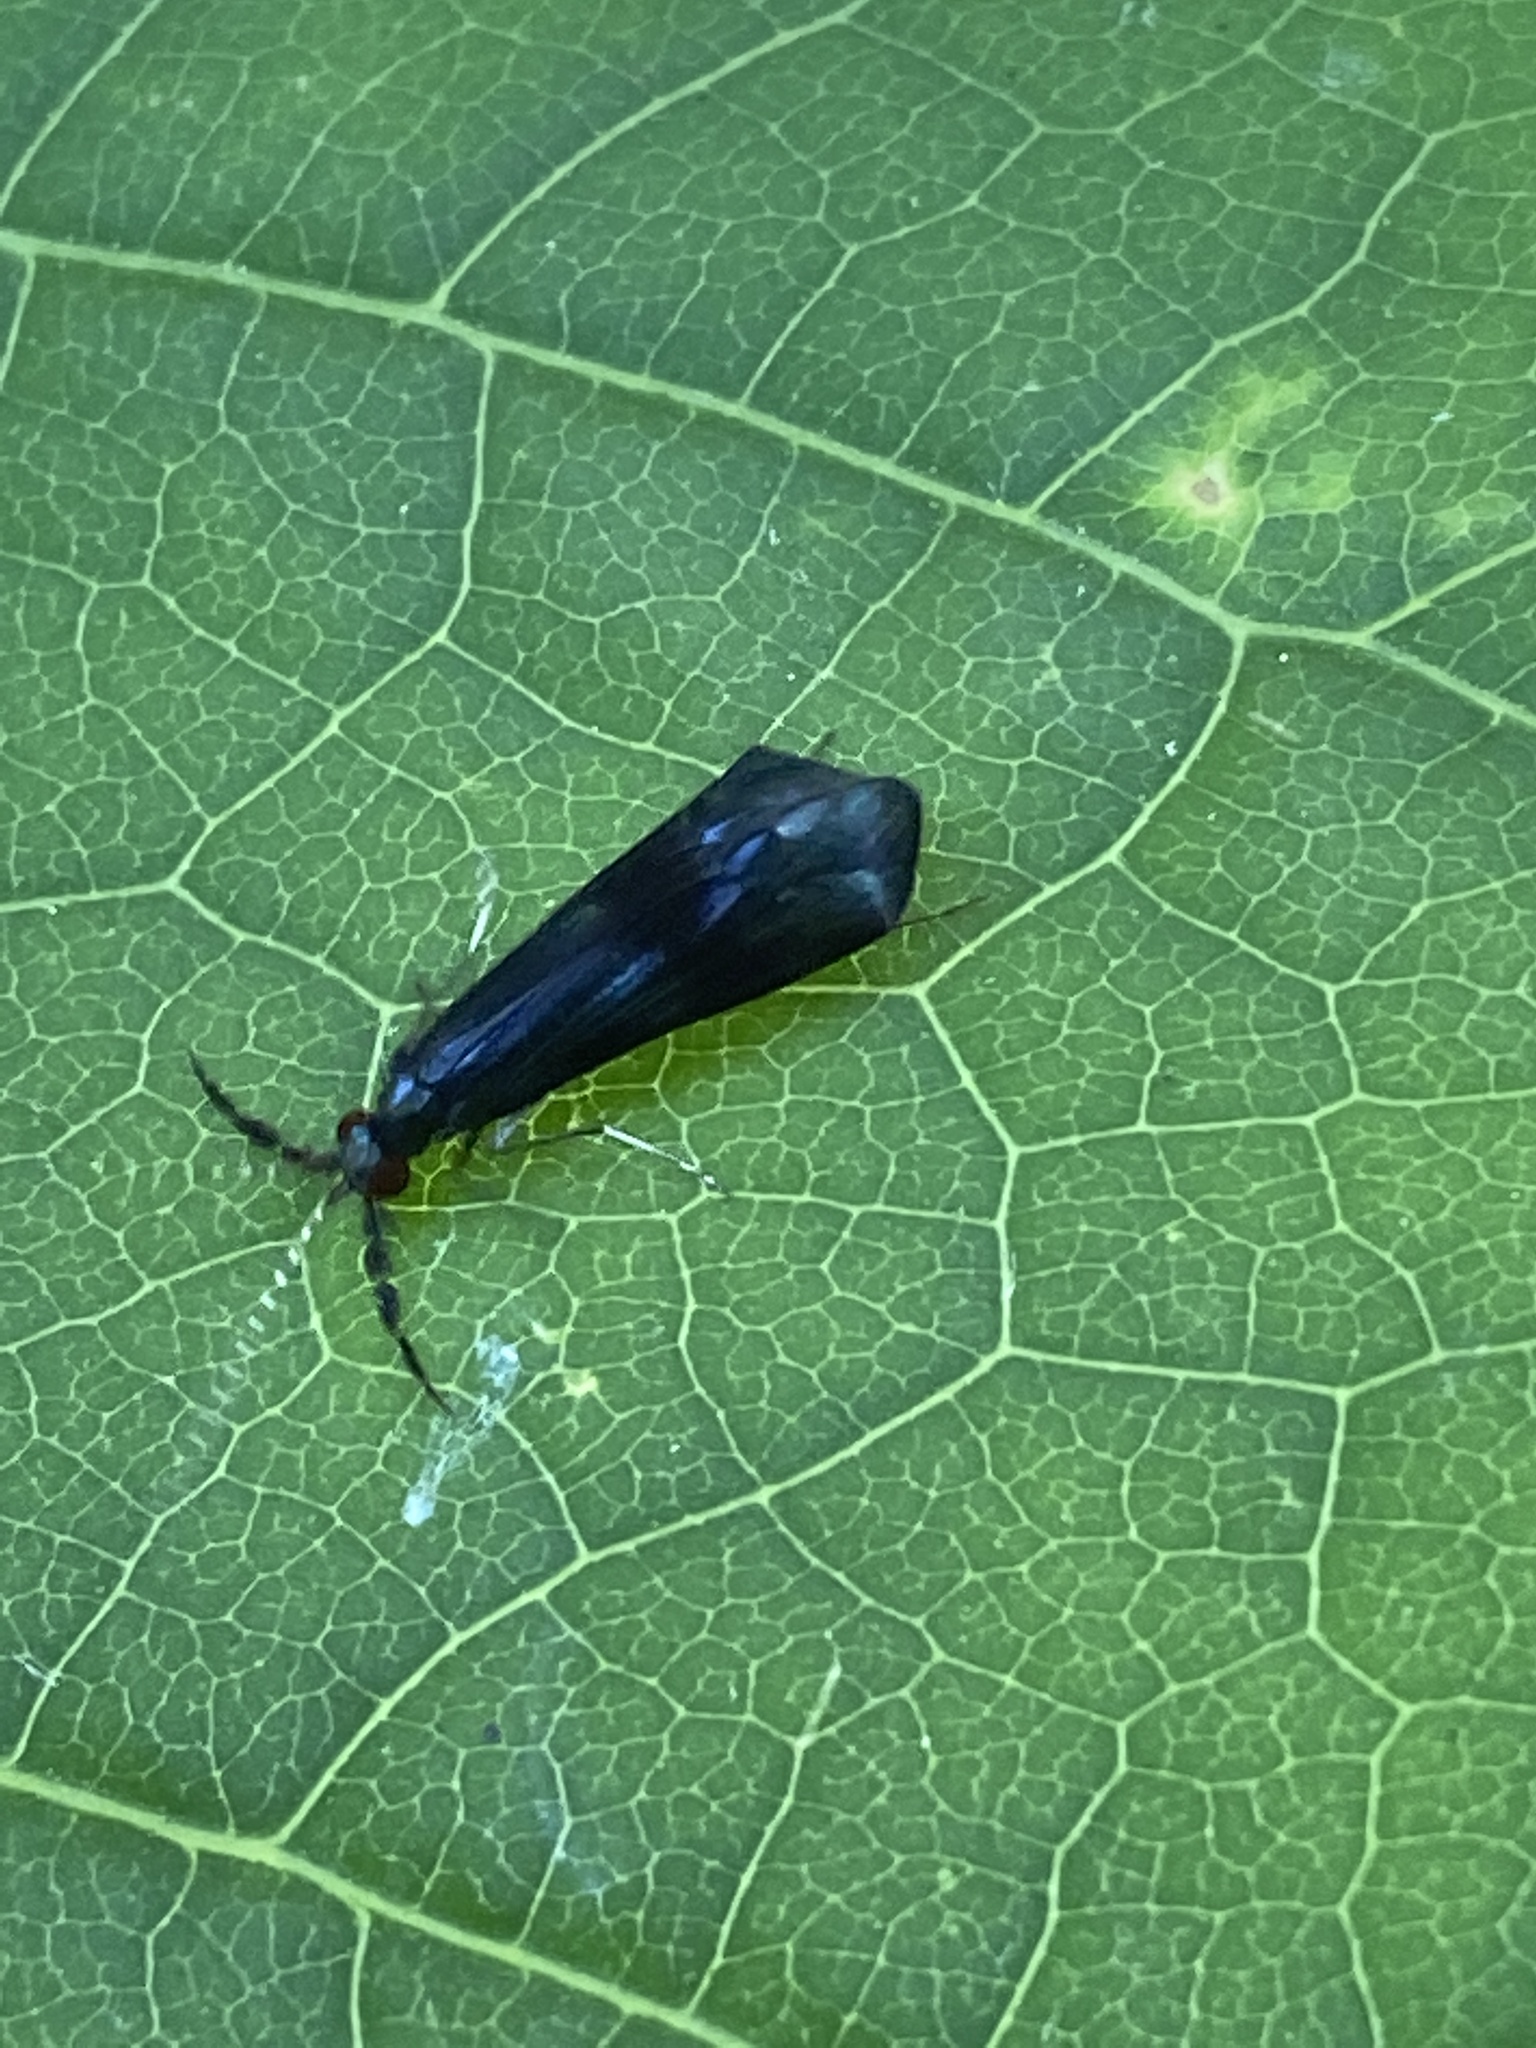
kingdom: Animalia
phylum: Arthropoda
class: Insecta
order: Trichoptera
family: Leptoceridae
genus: Mystacides
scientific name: Mystacides azureus
